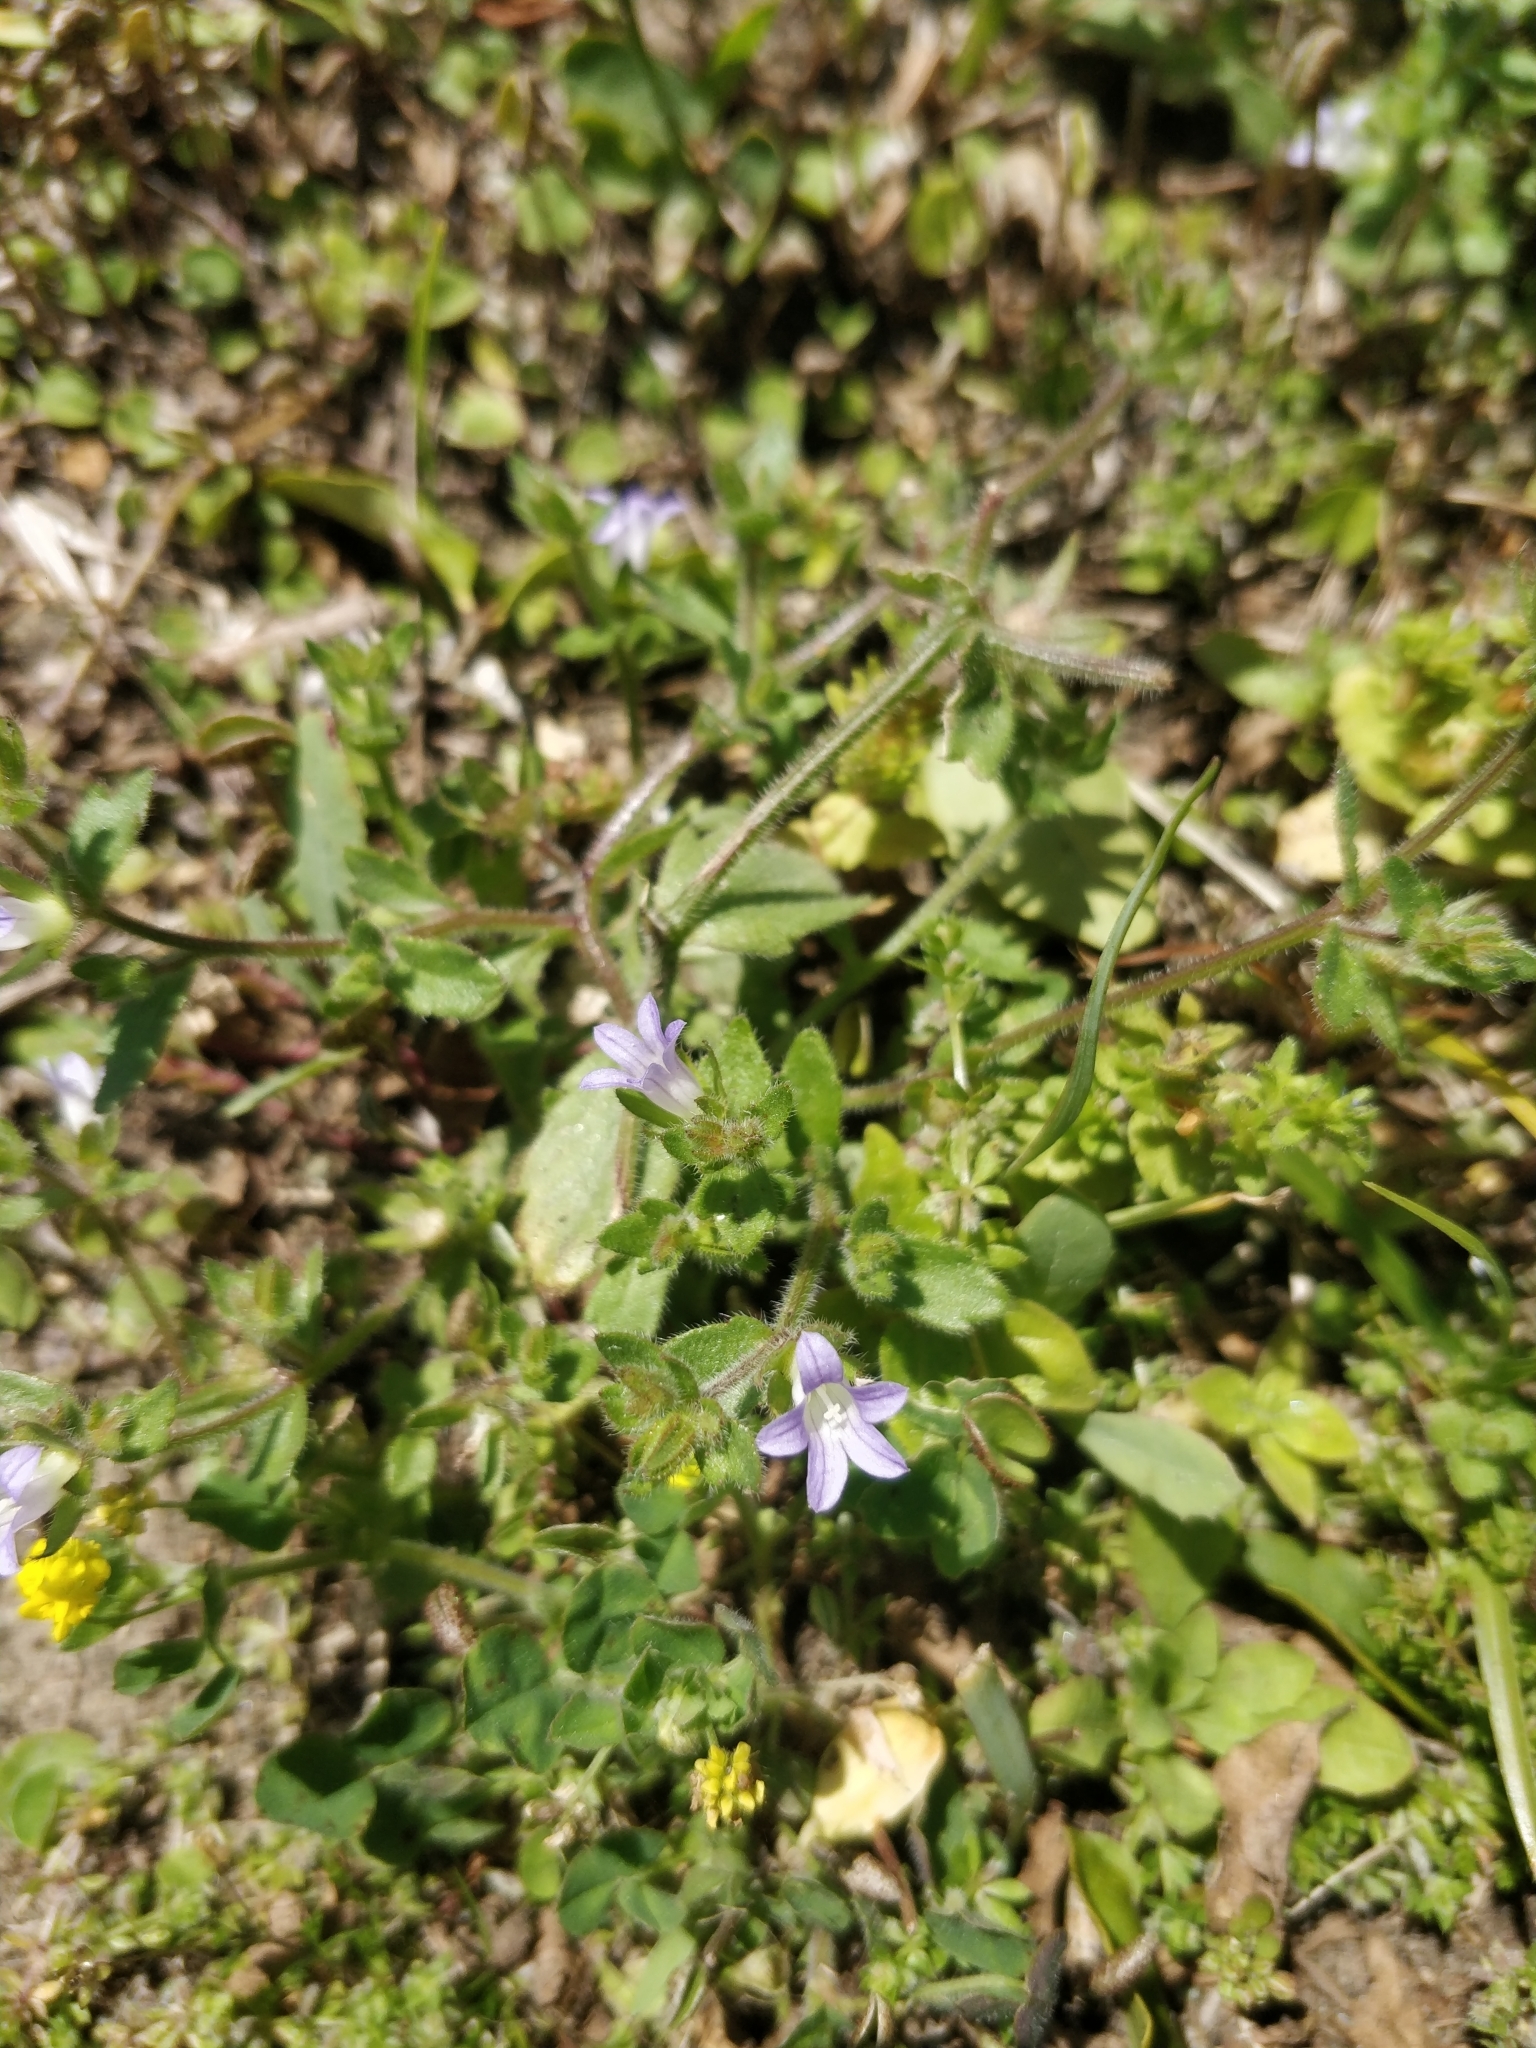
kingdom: Plantae
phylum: Tracheophyta
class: Magnoliopsida
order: Asterales
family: Campanulaceae
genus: Campanula
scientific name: Campanula erinus
